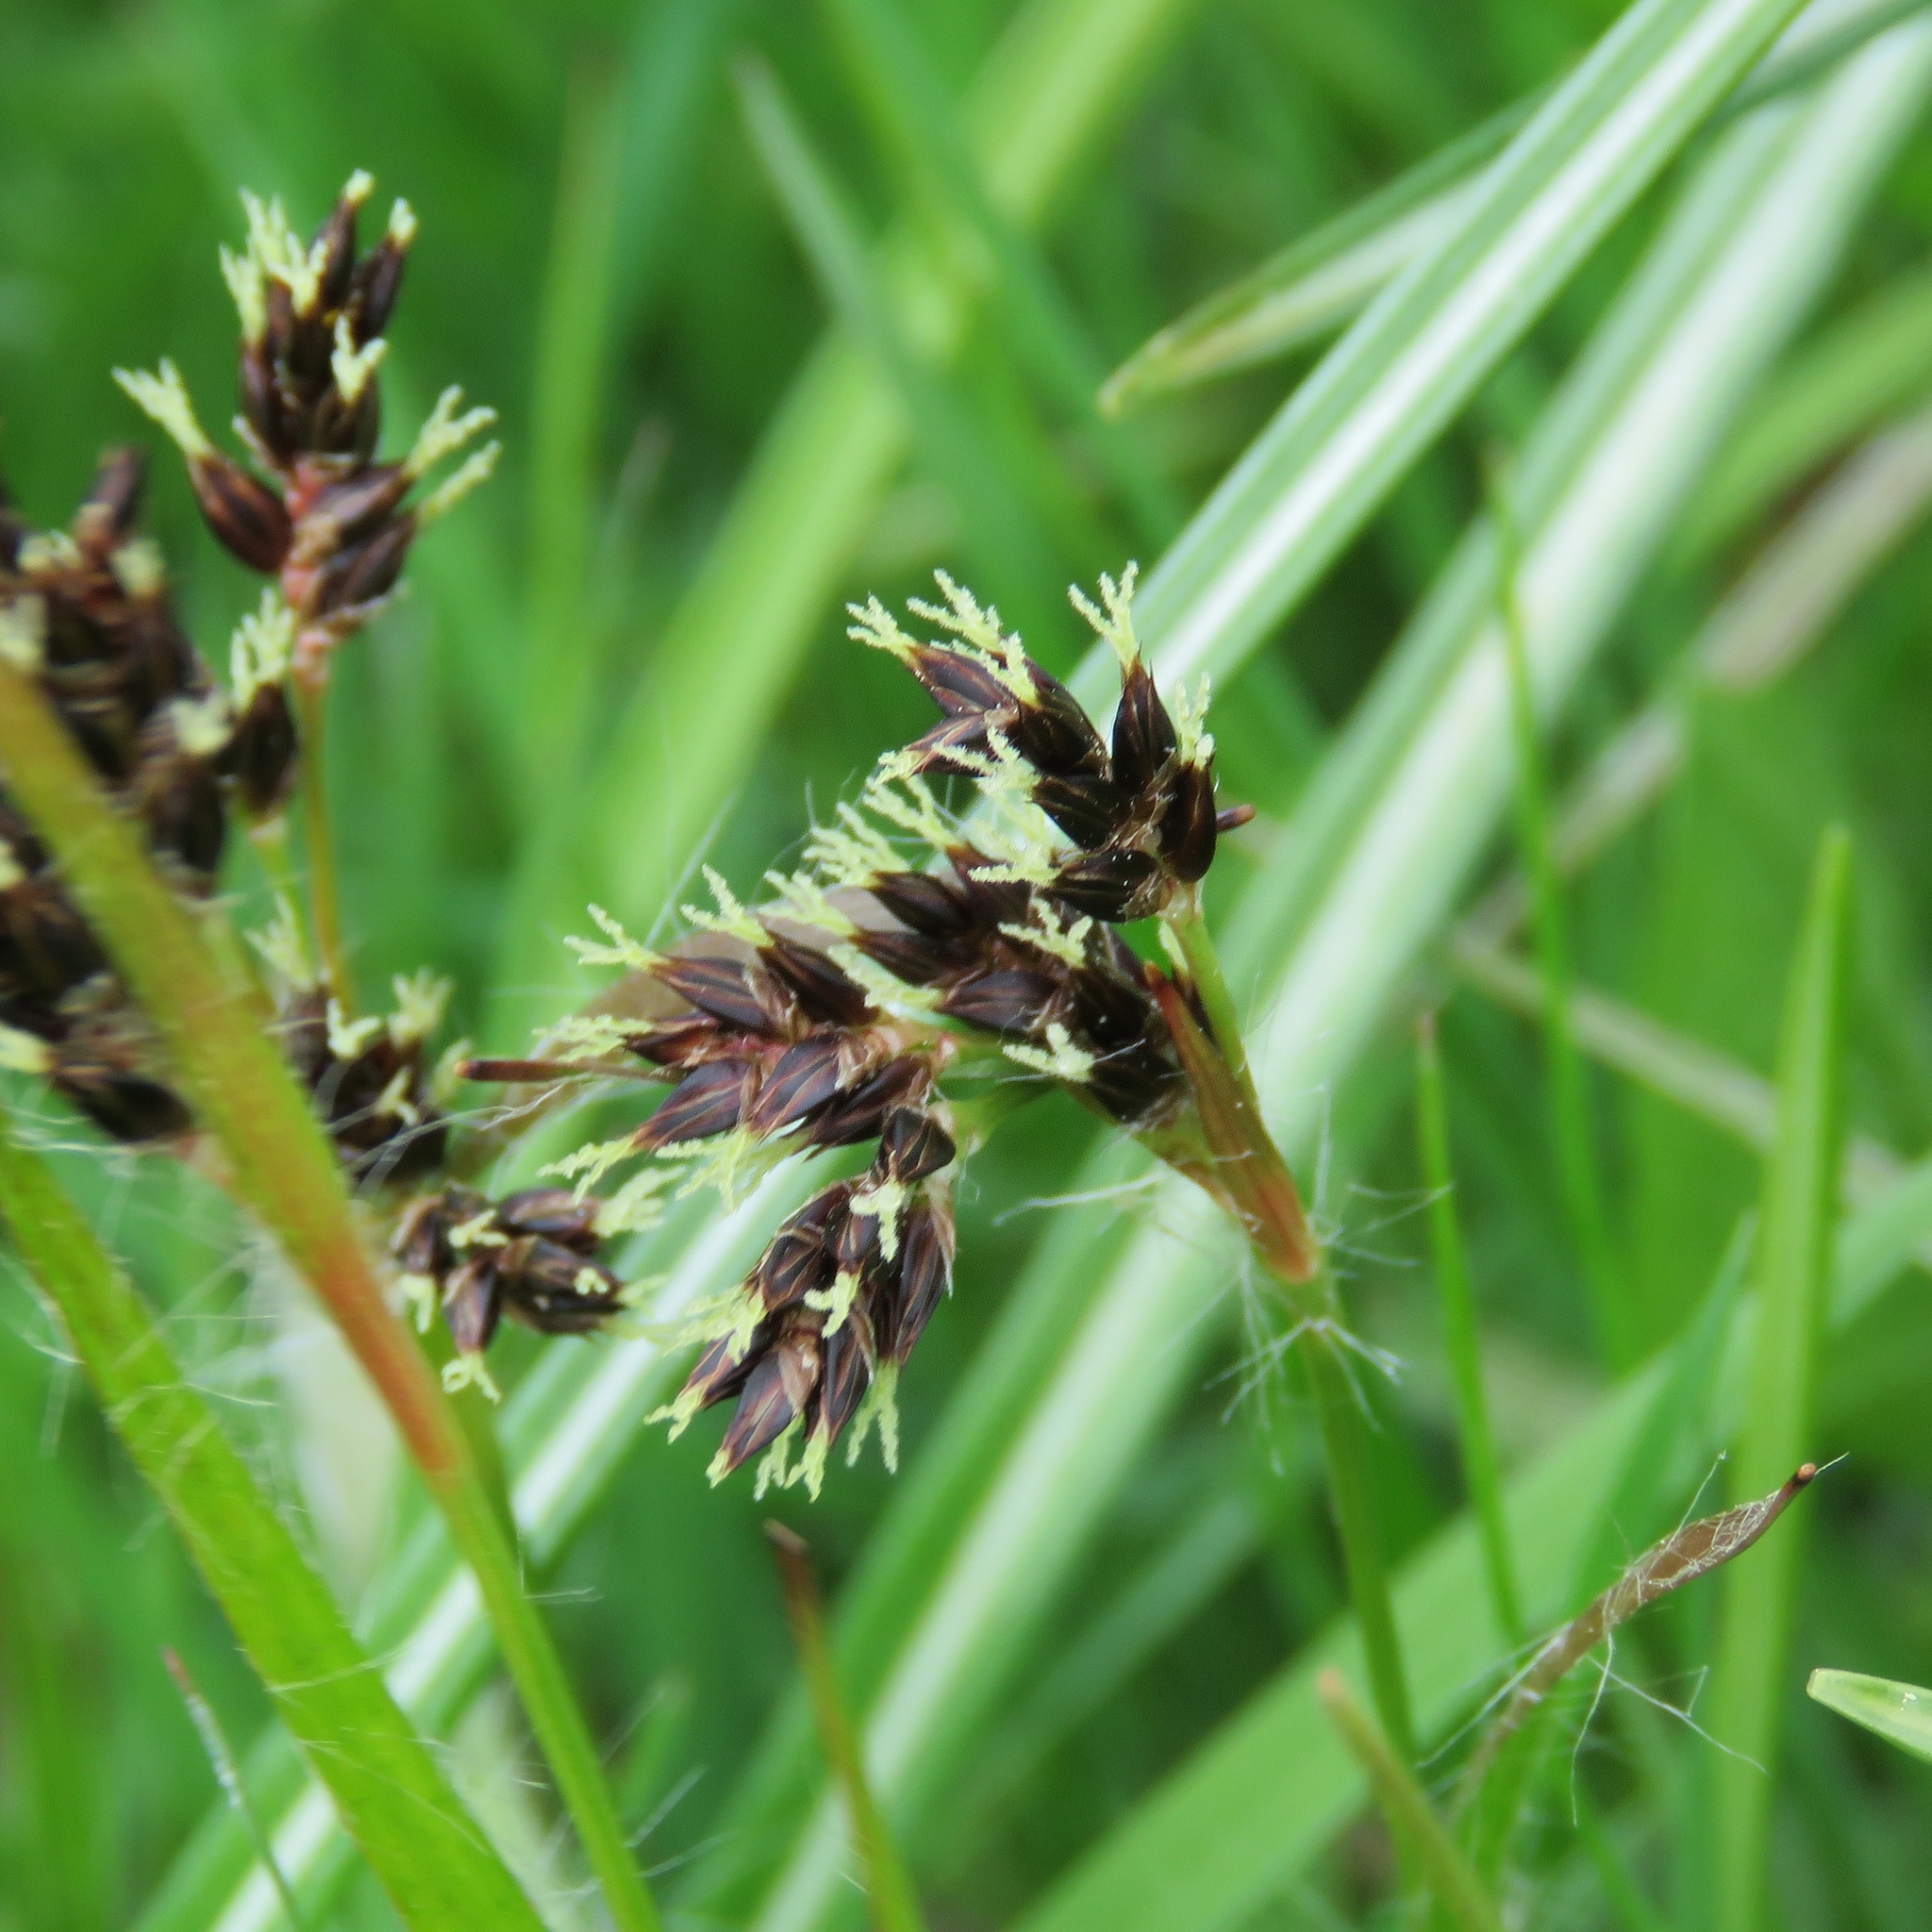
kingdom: Plantae
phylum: Tracheophyta
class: Liliopsida
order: Poales
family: Juncaceae
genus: Luzula
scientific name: Luzula campestris
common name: Field wood-rush
